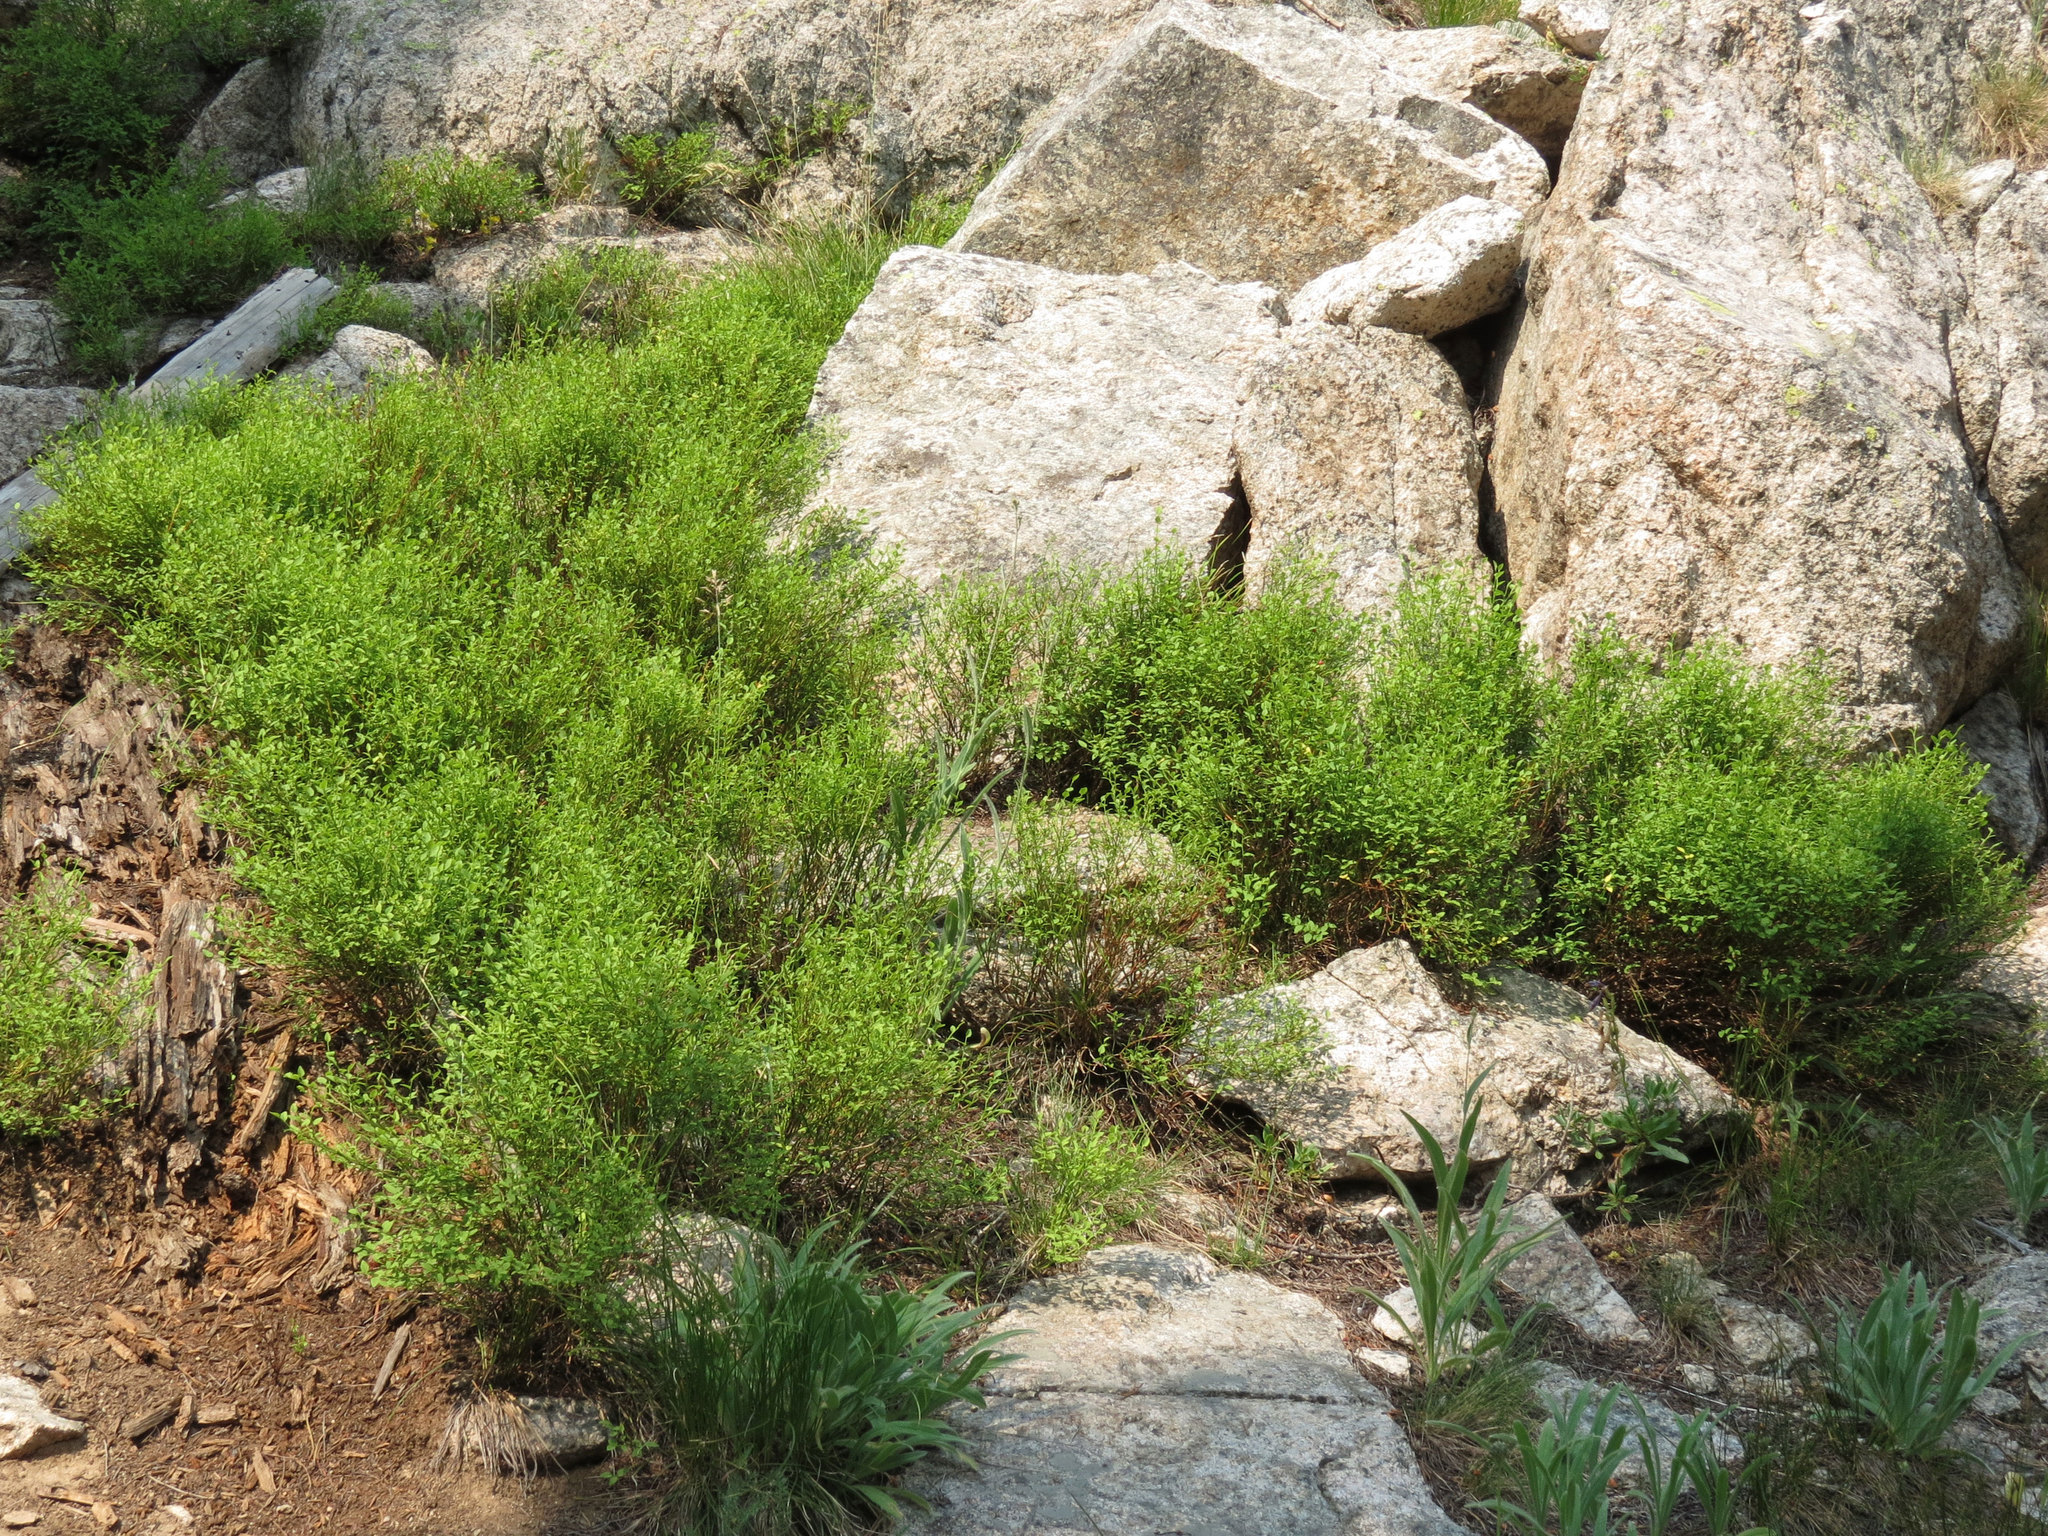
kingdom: Plantae
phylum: Tracheophyta
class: Magnoliopsida
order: Ericales
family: Ericaceae
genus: Vaccinium
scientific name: Vaccinium scoparium
